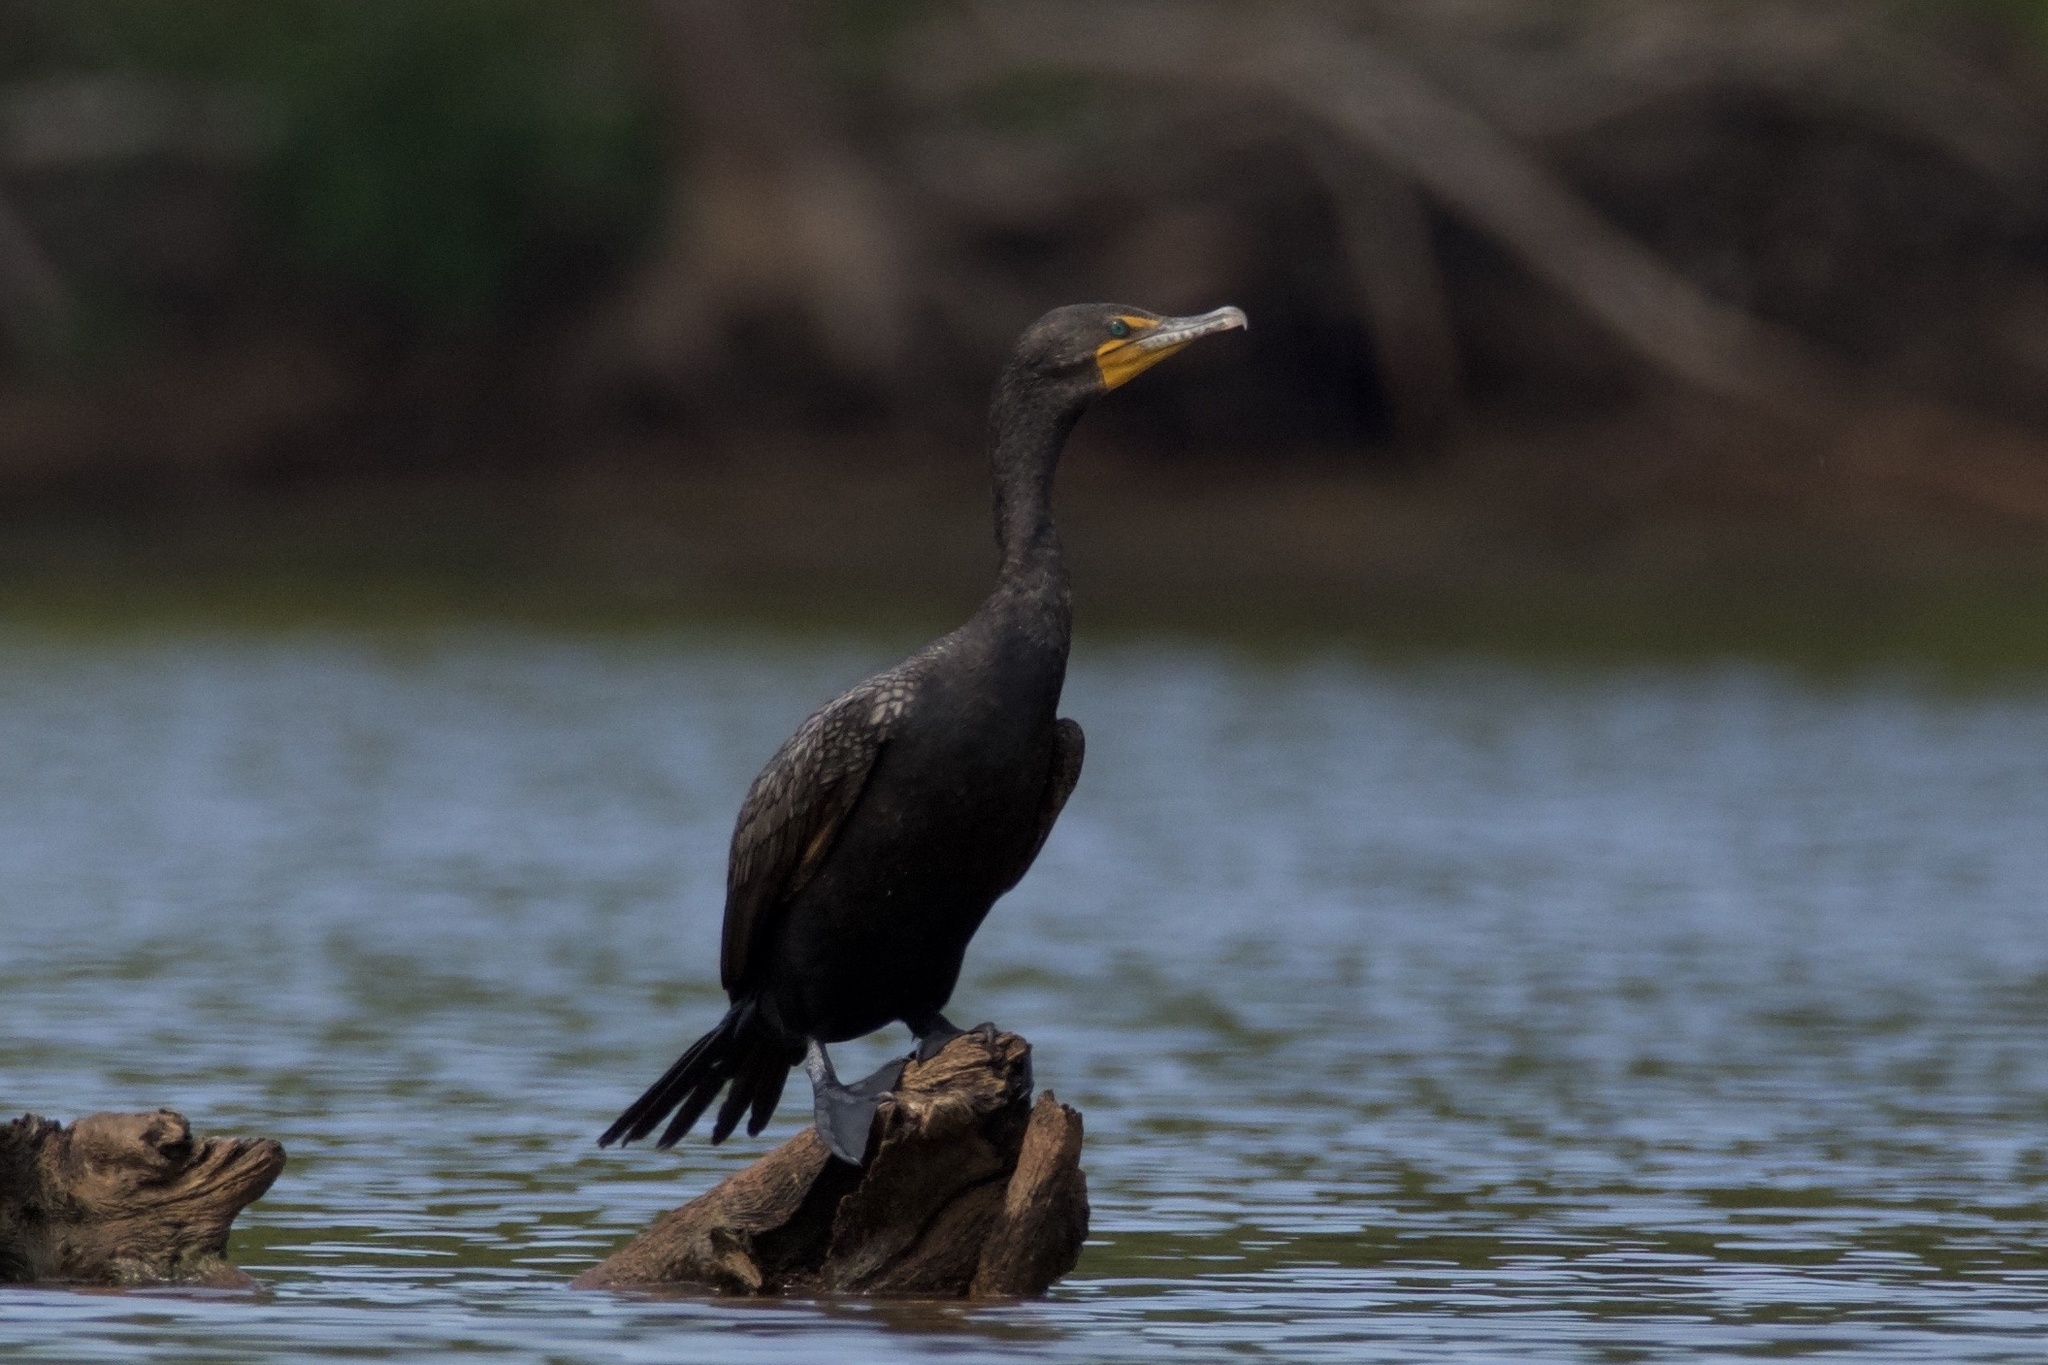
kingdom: Animalia
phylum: Chordata
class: Aves
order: Suliformes
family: Phalacrocoracidae
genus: Phalacrocorax
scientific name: Phalacrocorax auritus
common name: Double-crested cormorant
